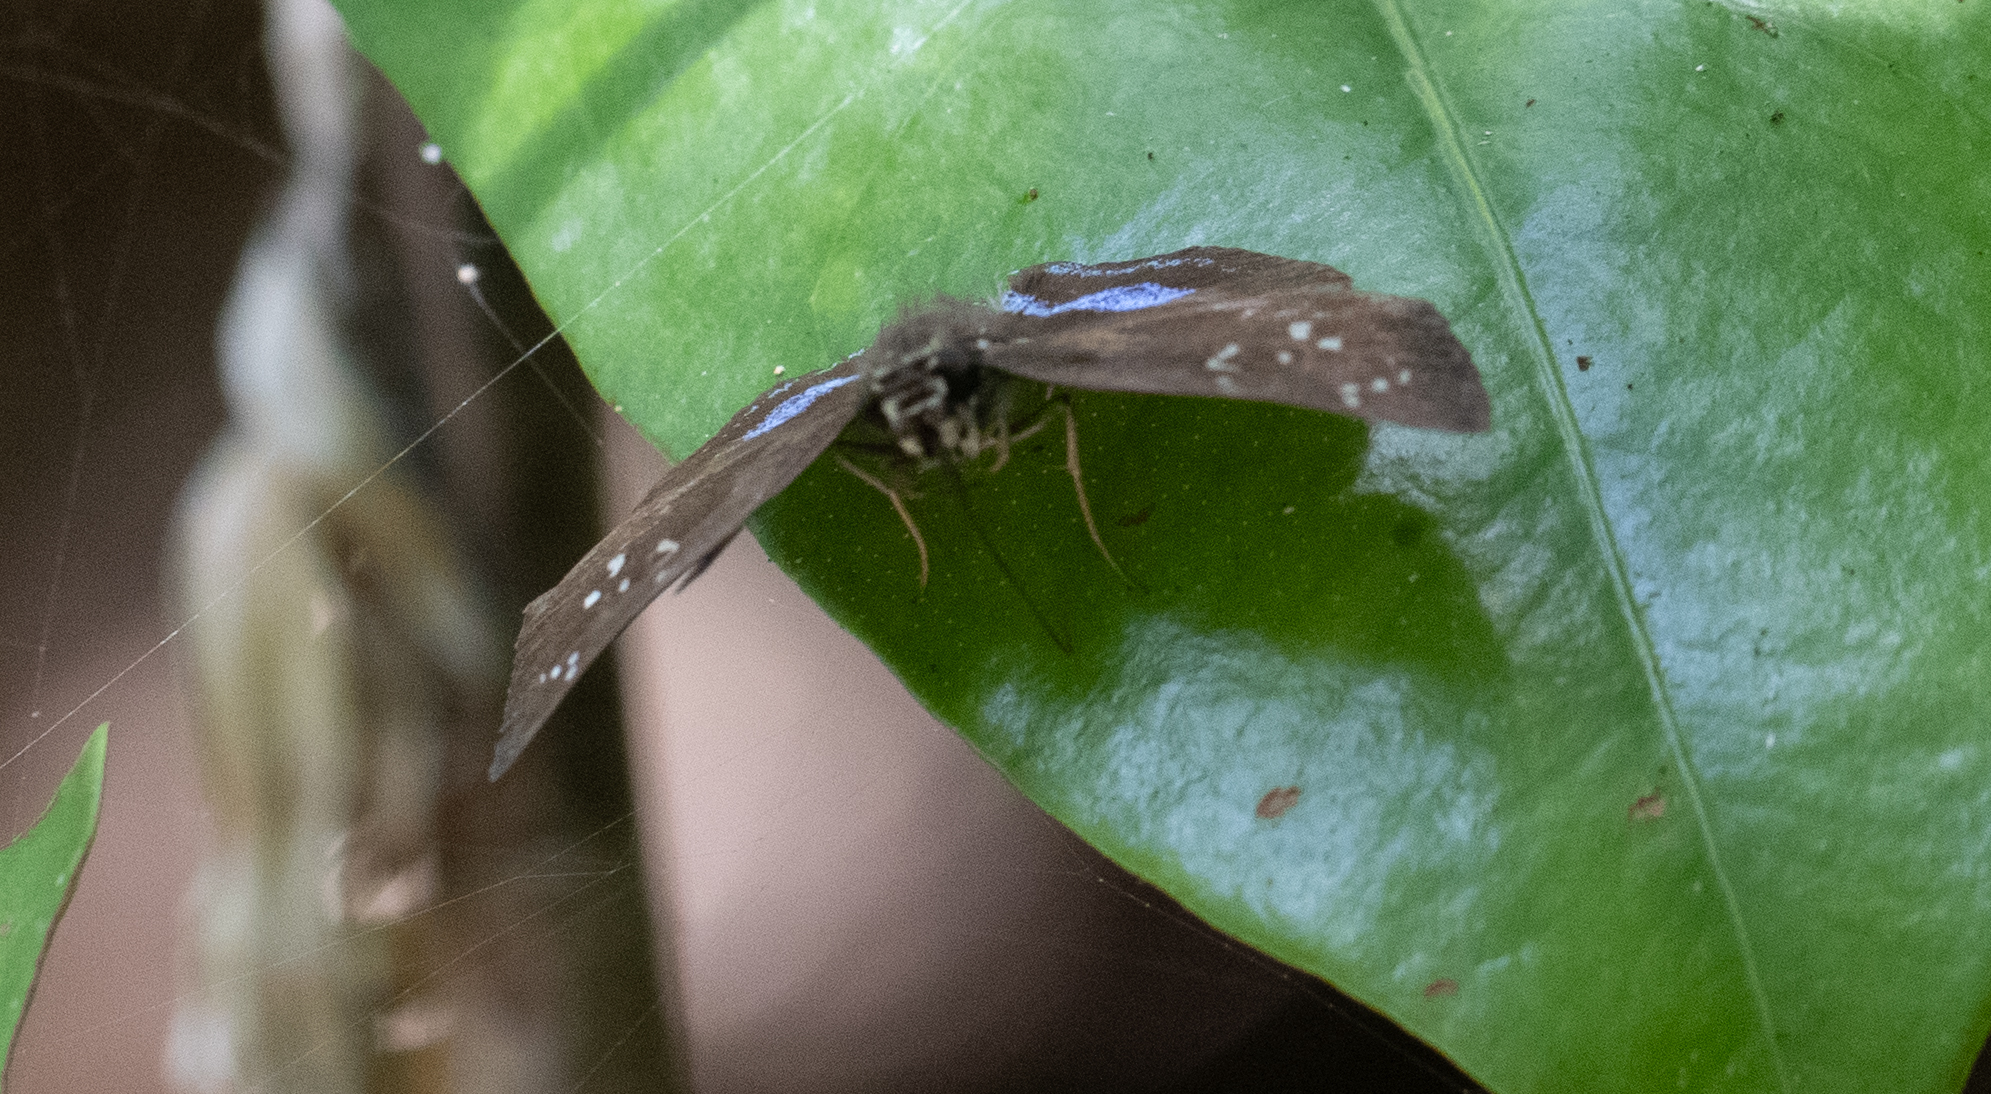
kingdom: Animalia
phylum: Arthropoda
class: Insecta
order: Lepidoptera
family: Hesperiidae
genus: Quadrus
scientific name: Quadrus contubernalis
